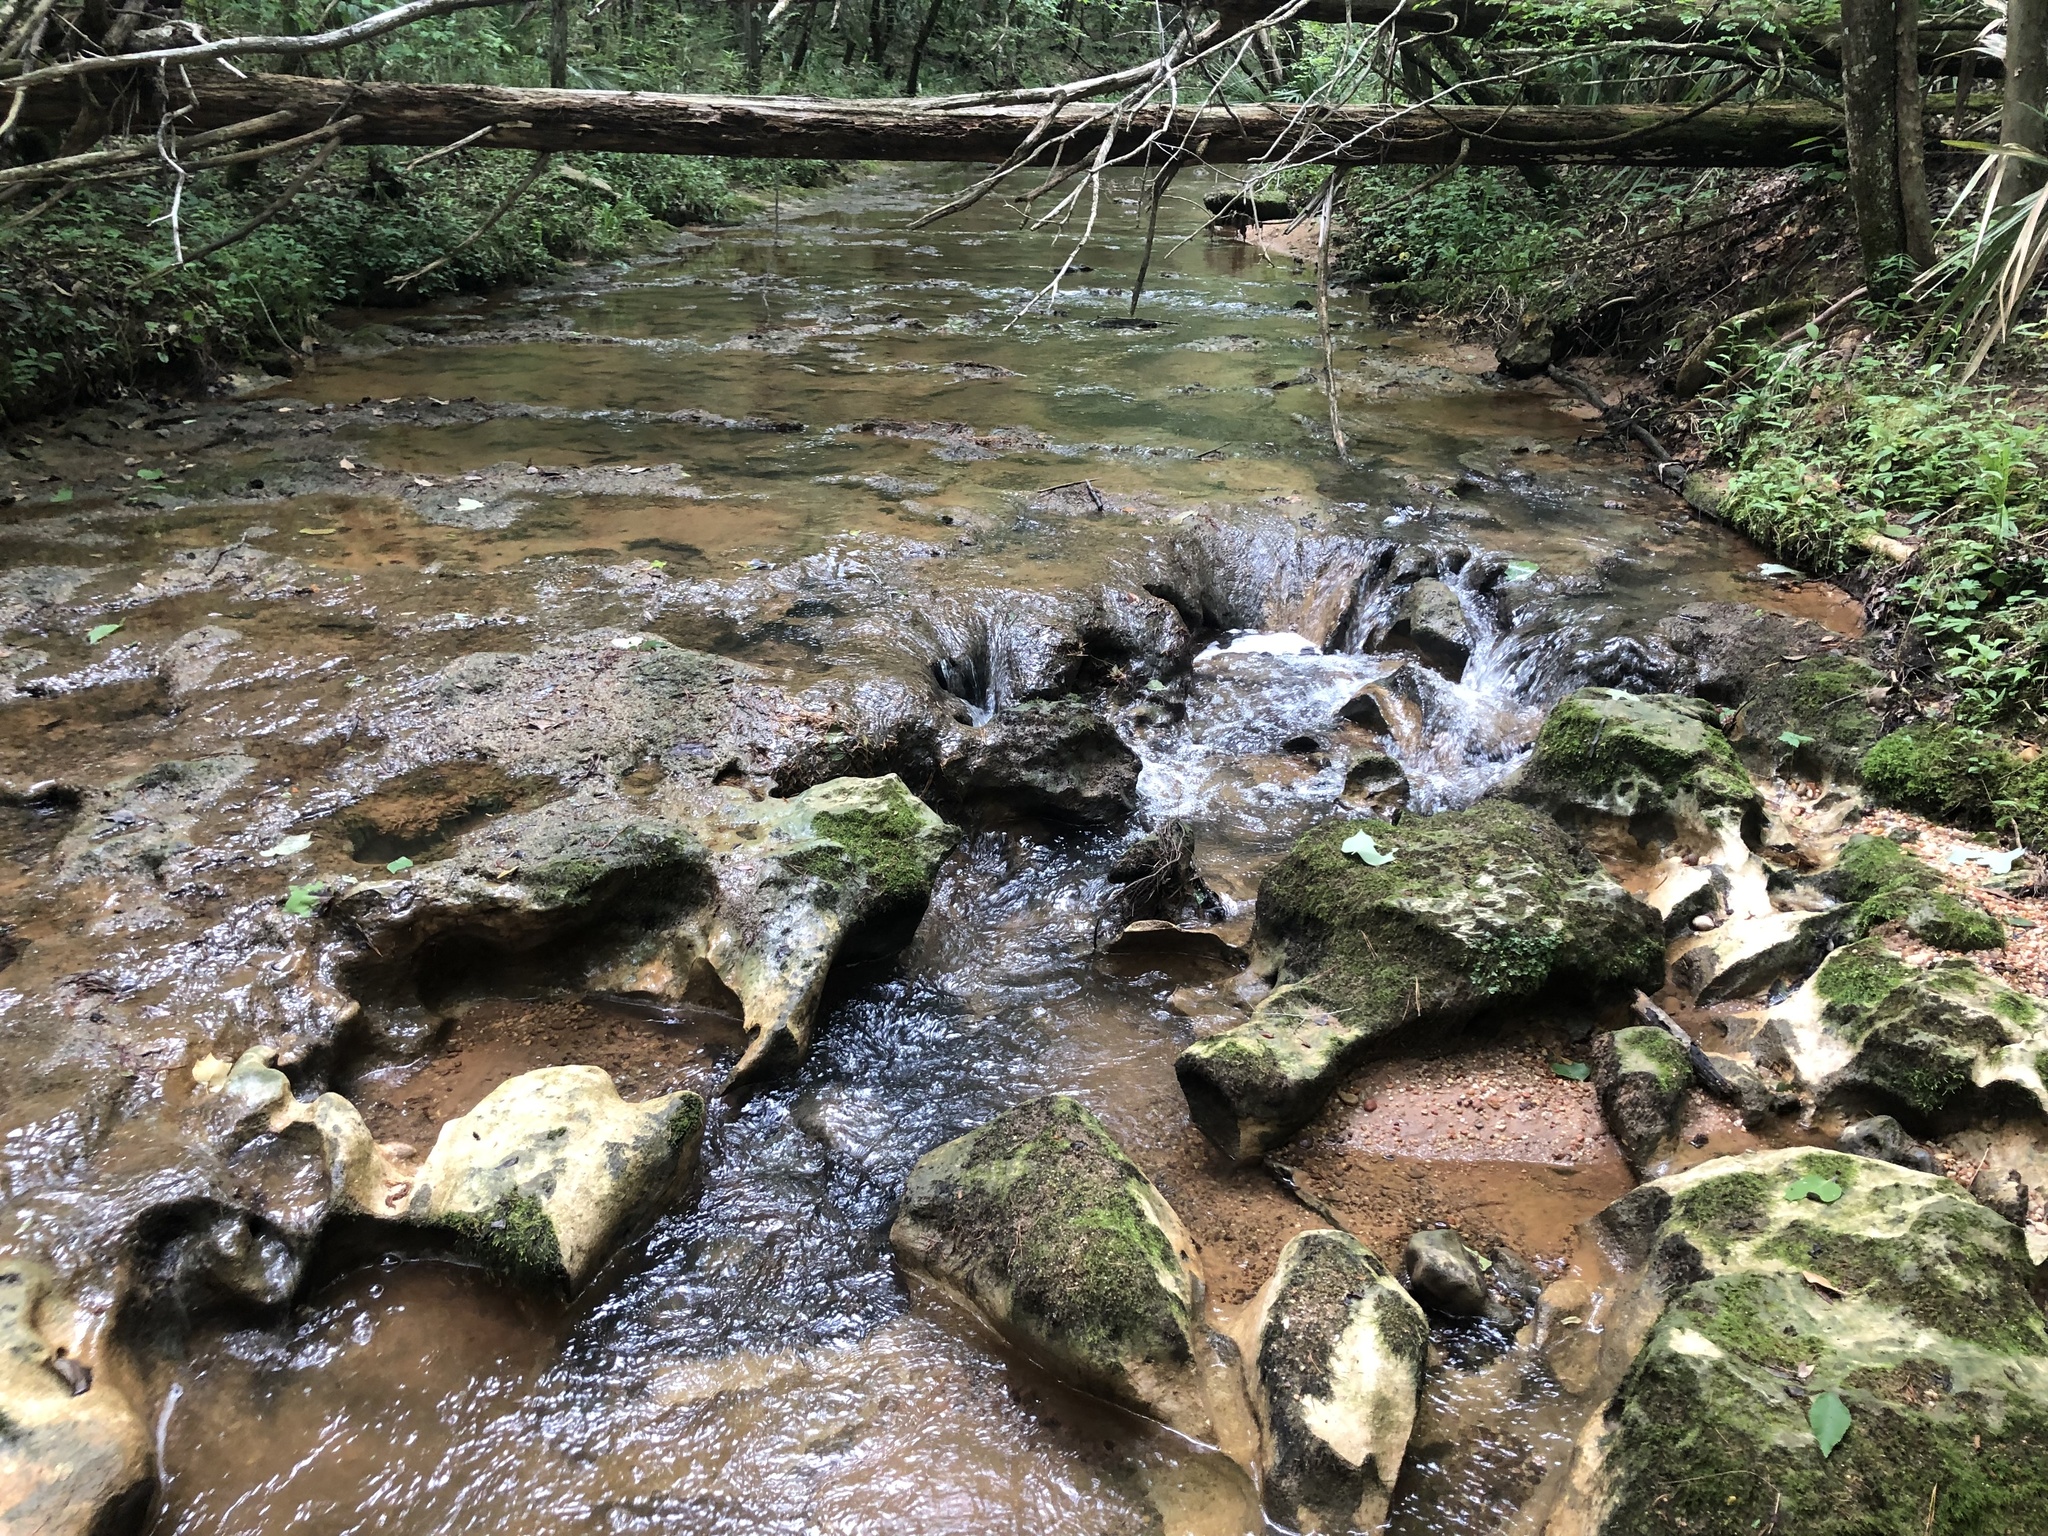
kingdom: Plantae
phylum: Tracheophyta
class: Polypodiopsida
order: Polypodiales
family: Pteridaceae
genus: Adiantum
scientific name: Adiantum capillus-veneris
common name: Maidenhair fern
